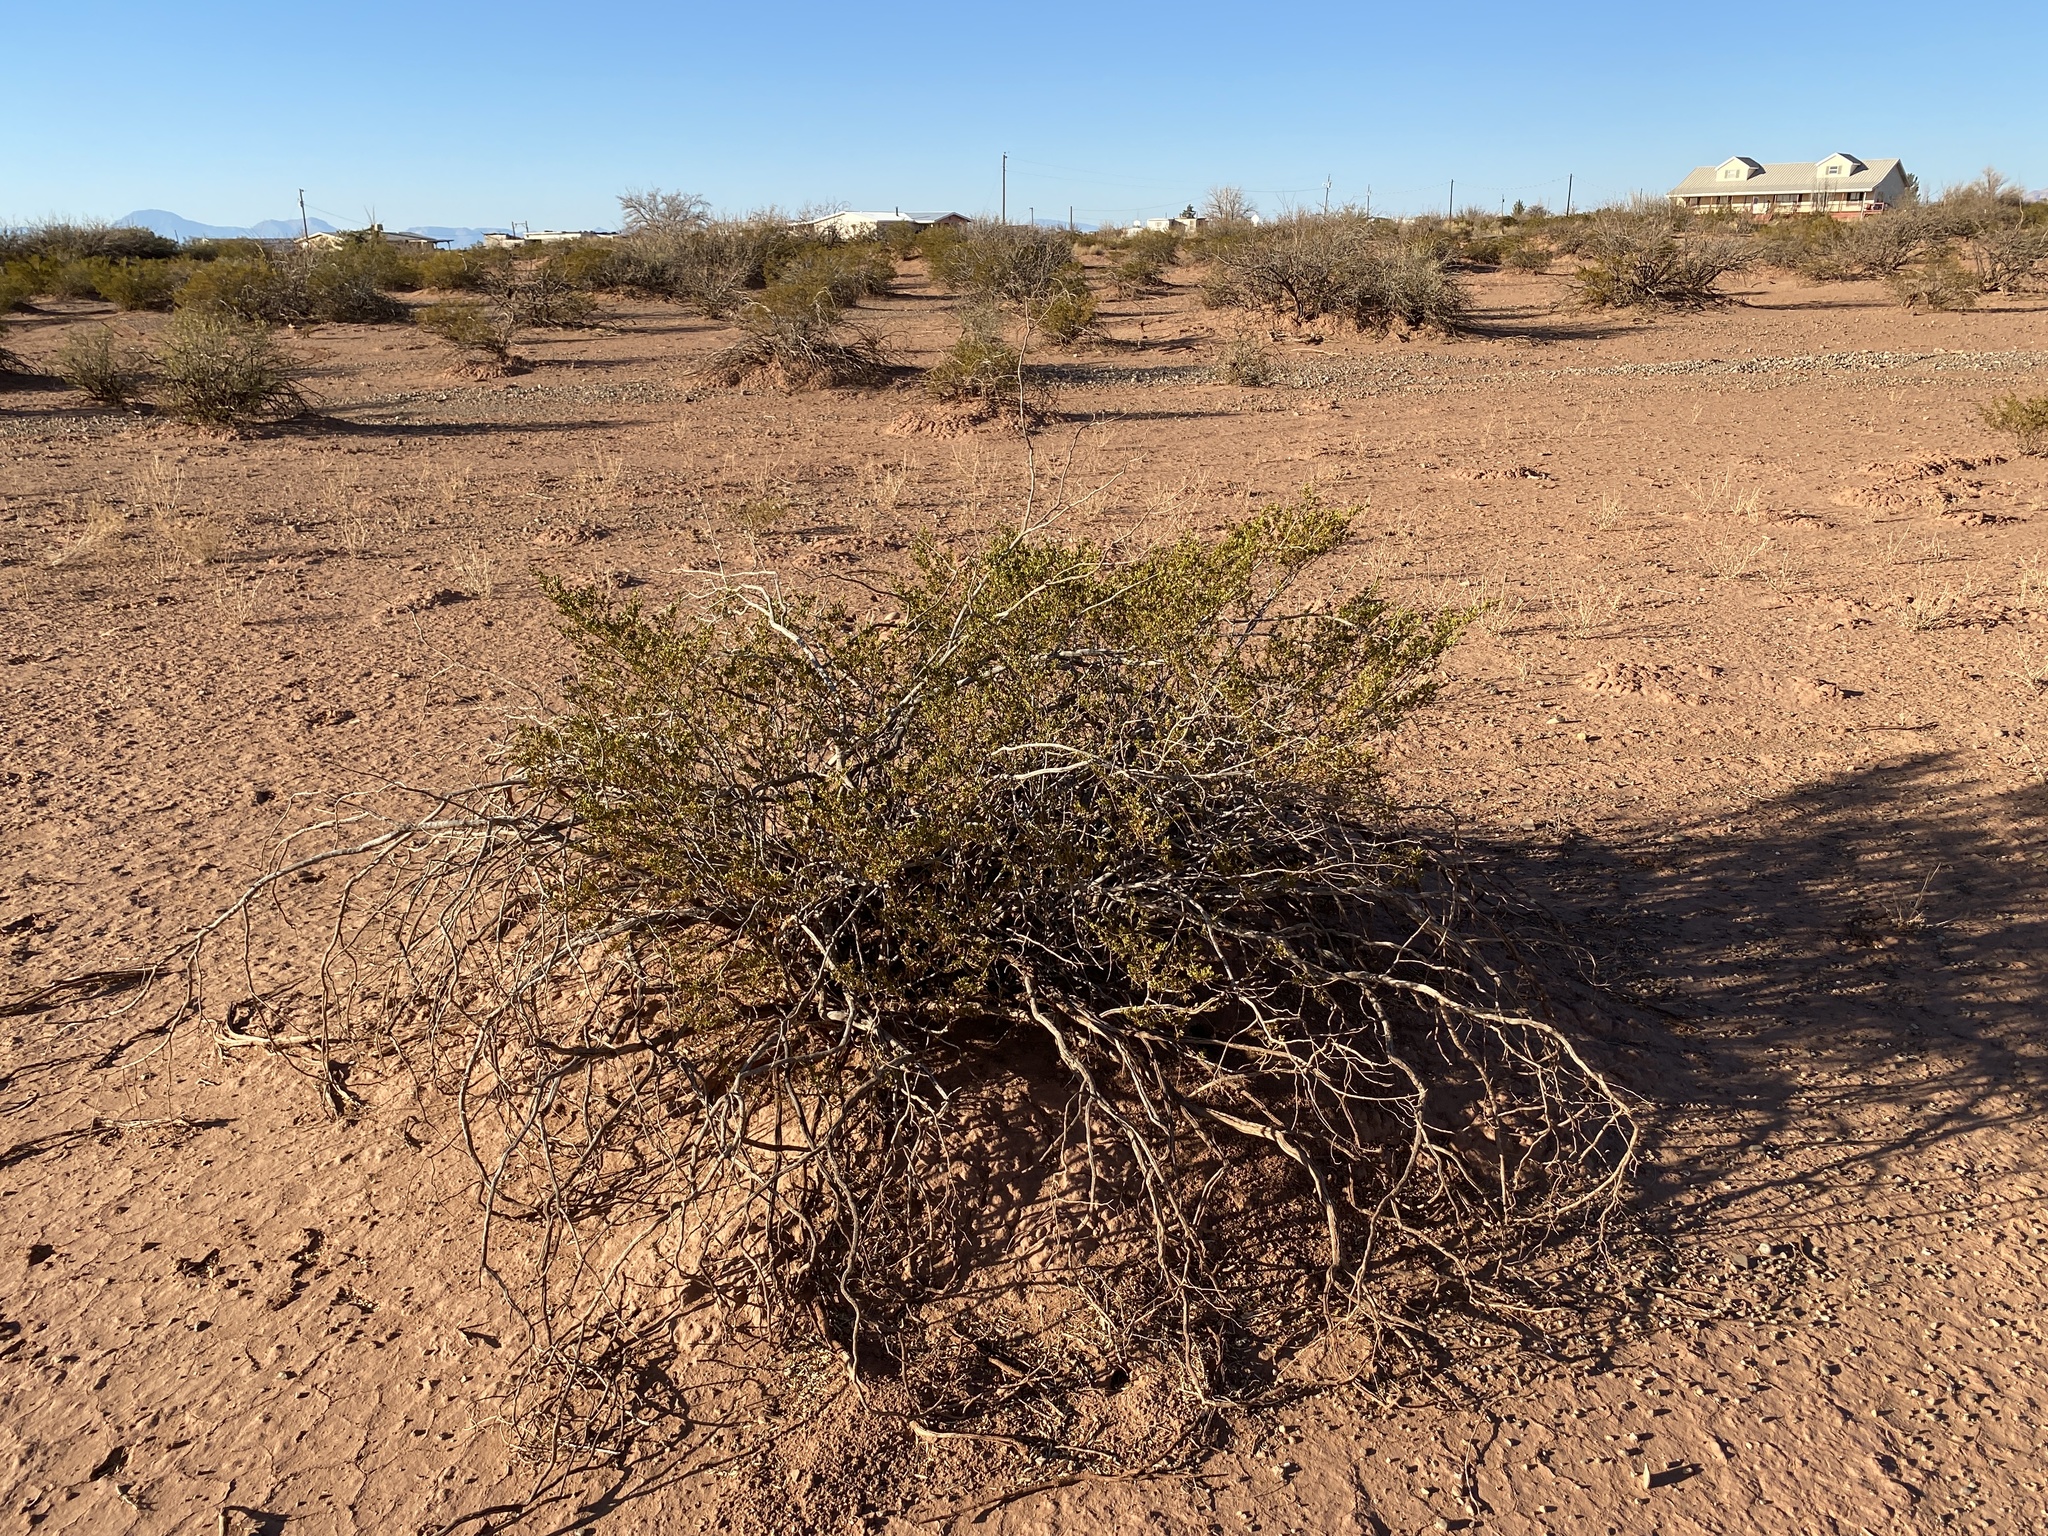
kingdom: Plantae
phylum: Tracheophyta
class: Magnoliopsida
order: Zygophyllales
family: Zygophyllaceae
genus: Larrea
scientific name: Larrea tridentata
